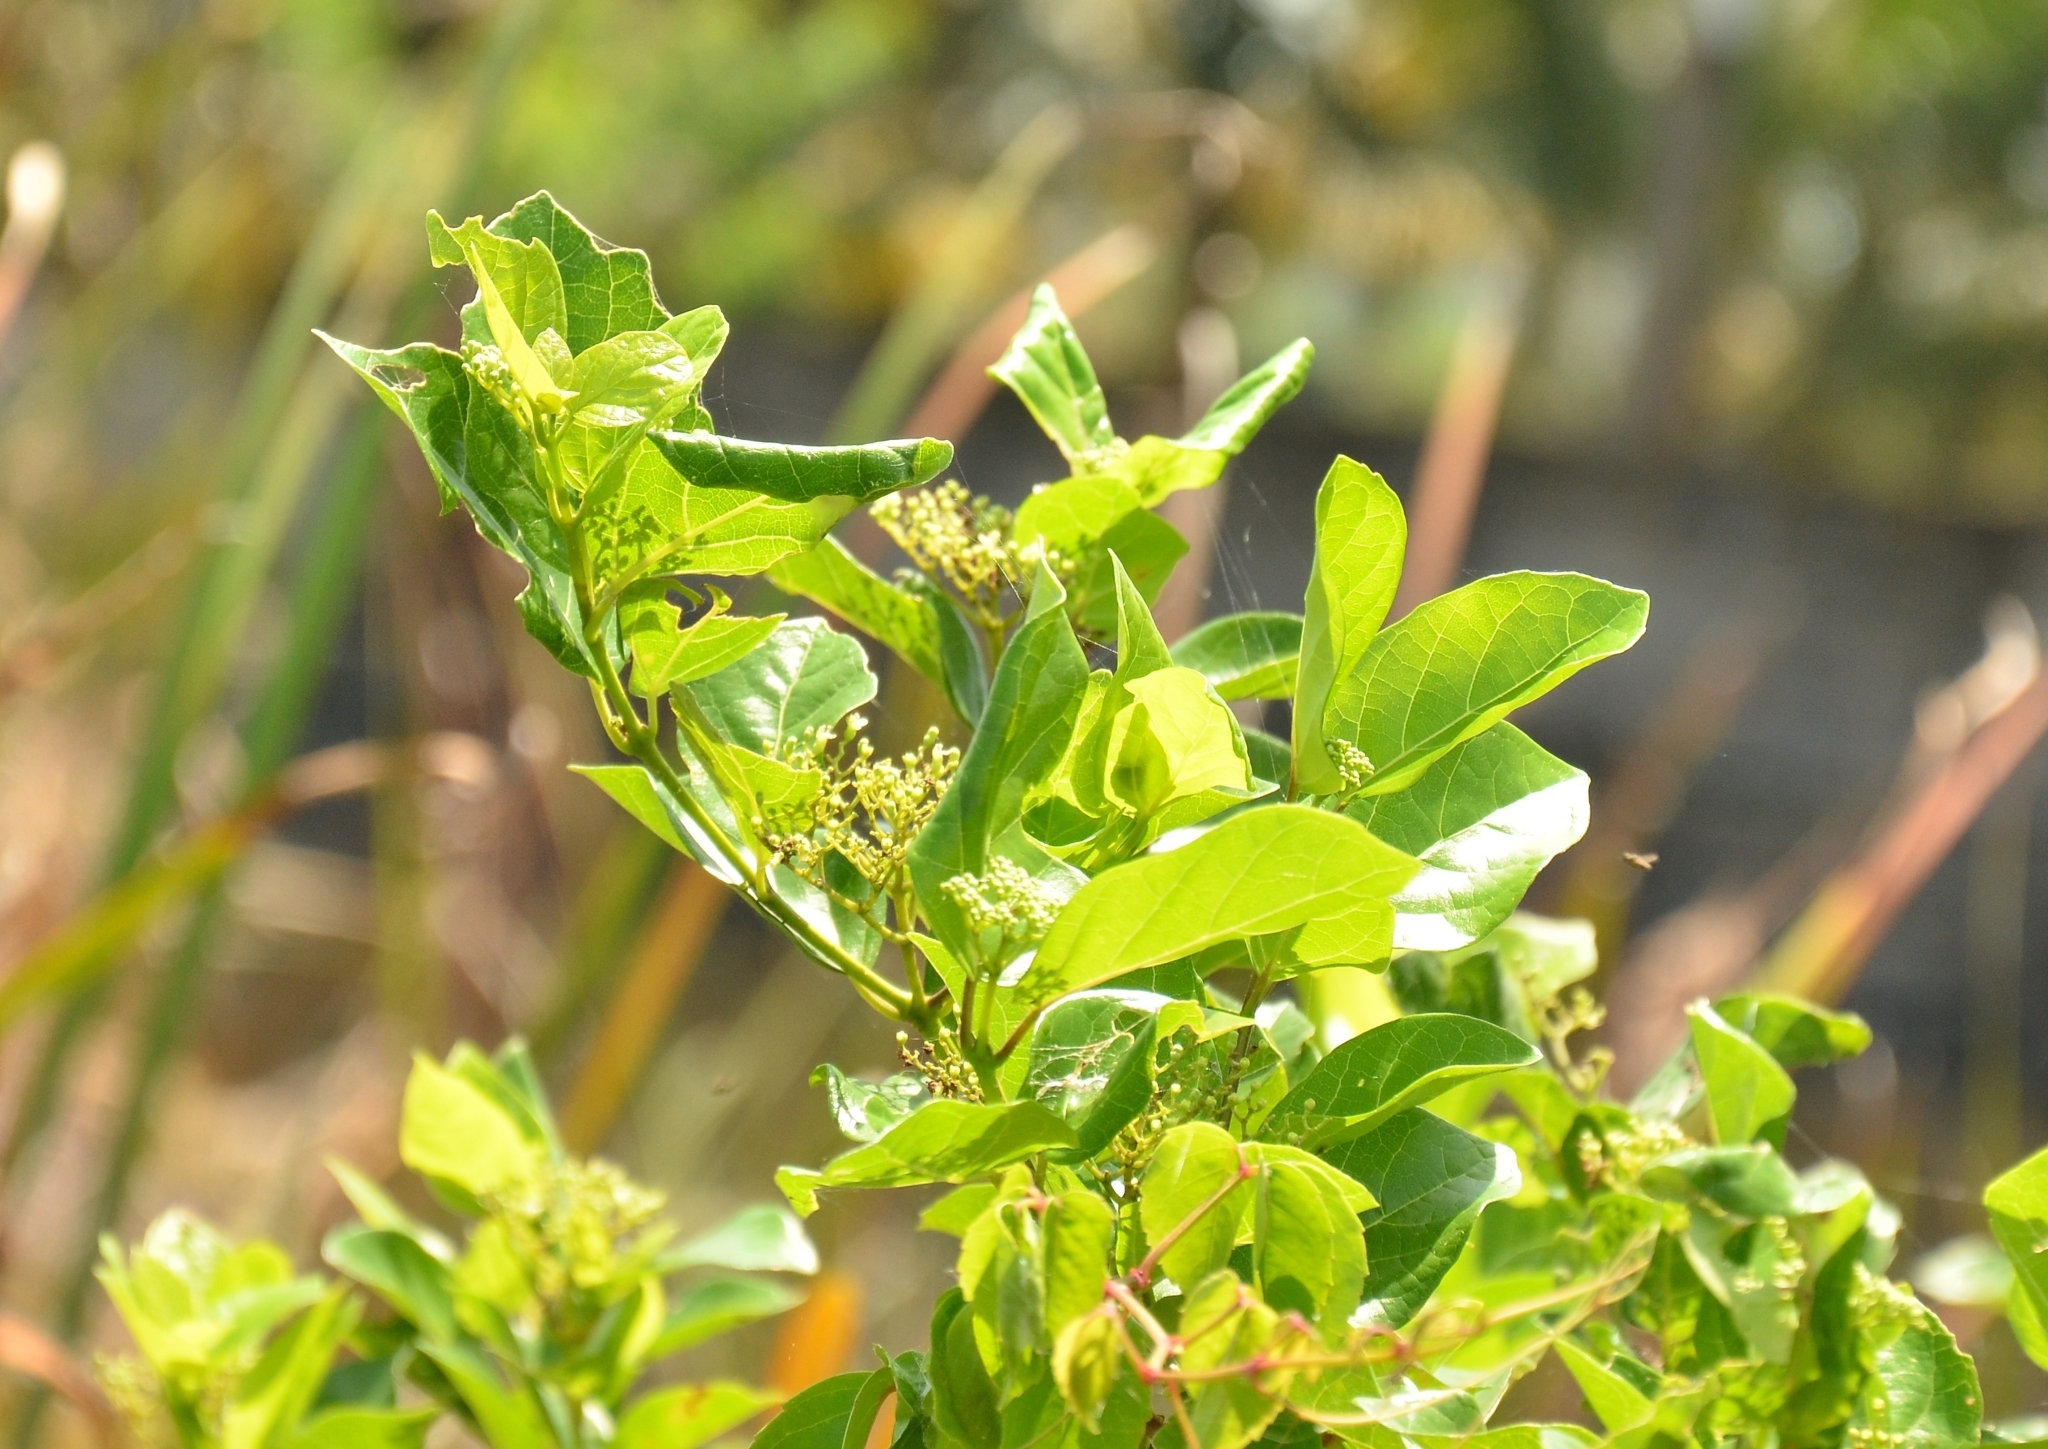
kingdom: Plantae
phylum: Tracheophyta
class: Magnoliopsida
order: Lamiales
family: Lamiaceae
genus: Premna
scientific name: Premna serratifolia
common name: Bastard guelder
